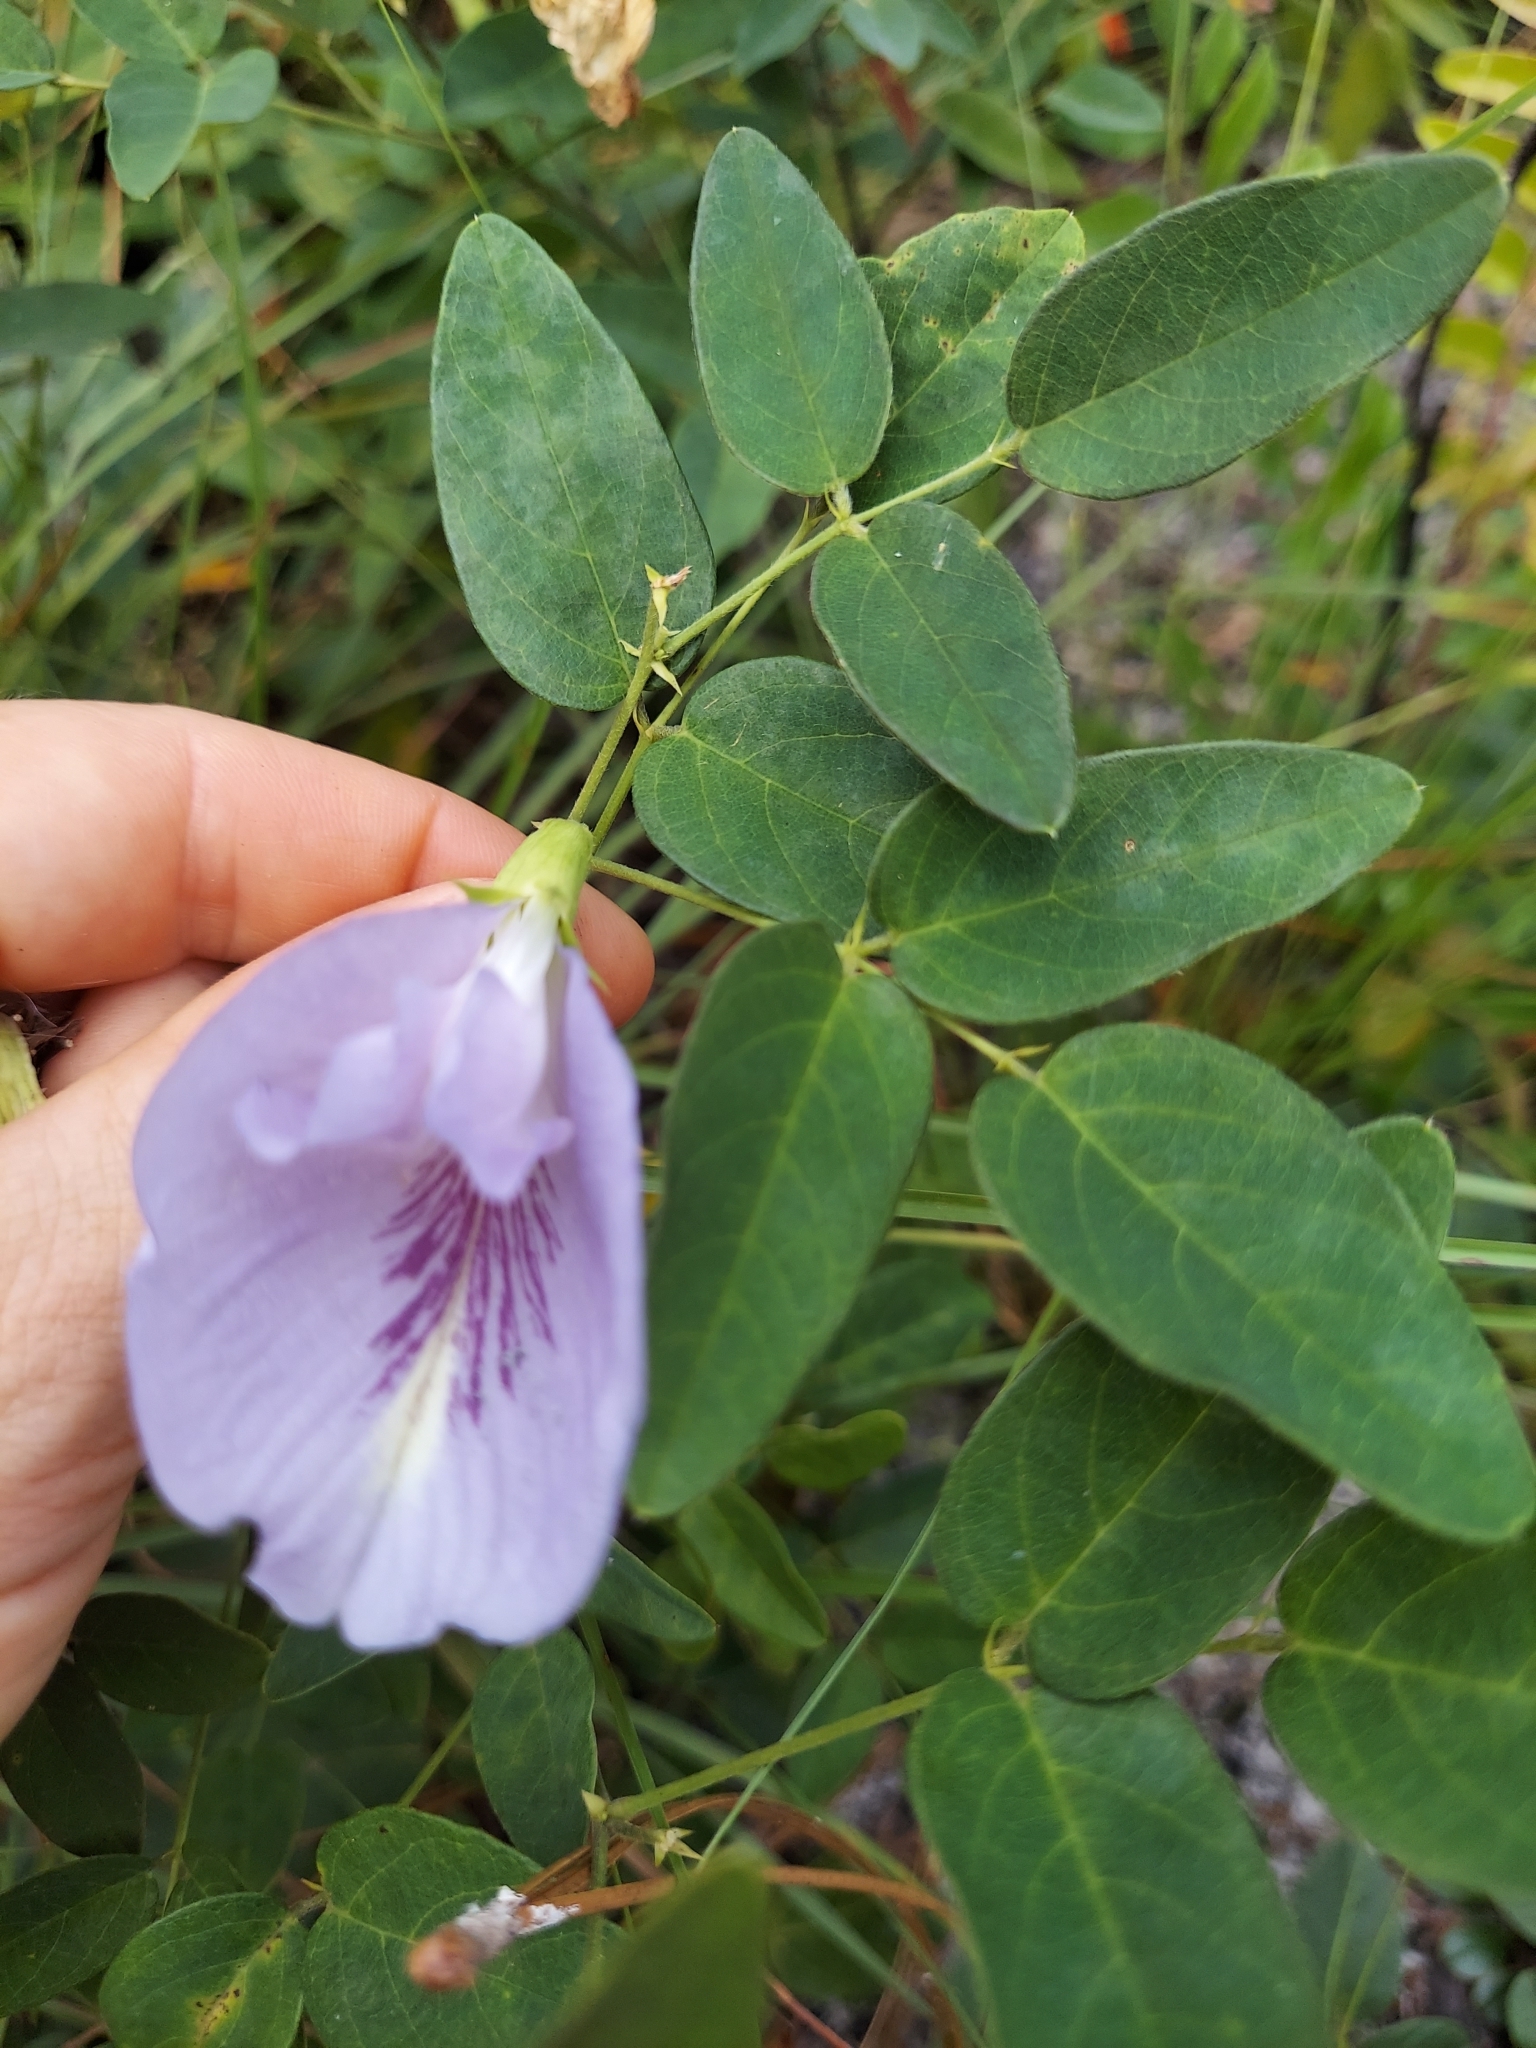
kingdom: Plantae
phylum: Tracheophyta
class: Magnoliopsida
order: Fabales
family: Fabaceae
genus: Clitoria
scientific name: Clitoria mariana
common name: Butterfly-pea
